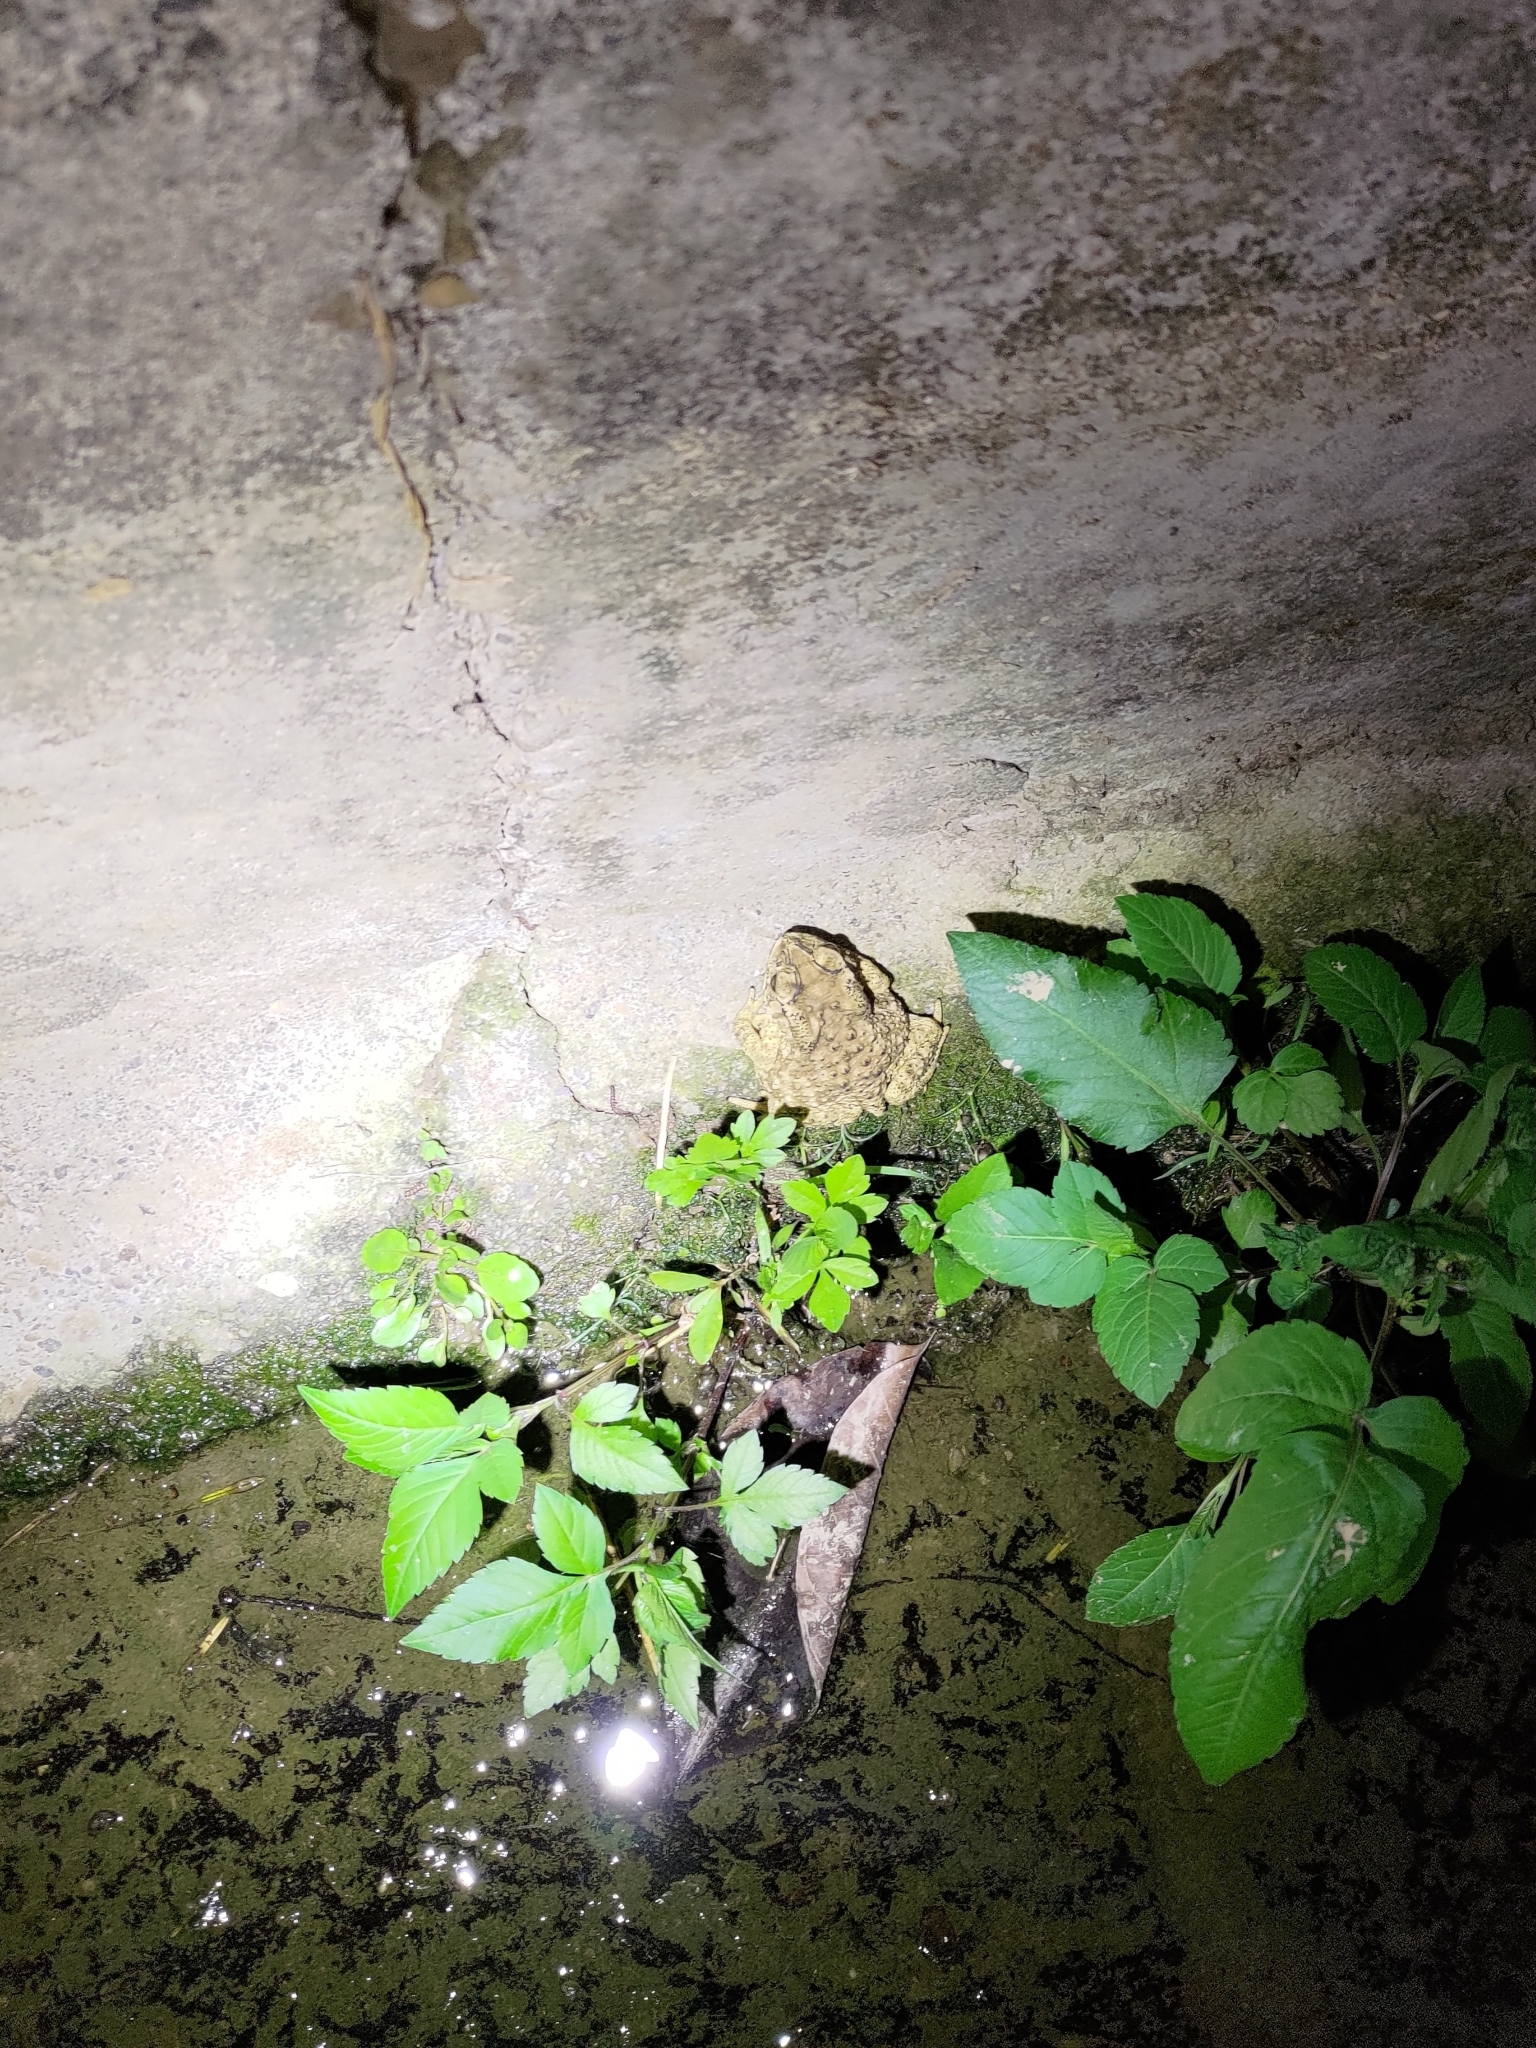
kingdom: Animalia
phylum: Chordata
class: Amphibia
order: Anura
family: Bufonidae
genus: Duttaphrynus
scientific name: Duttaphrynus melanostictus
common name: Common sunda toad
